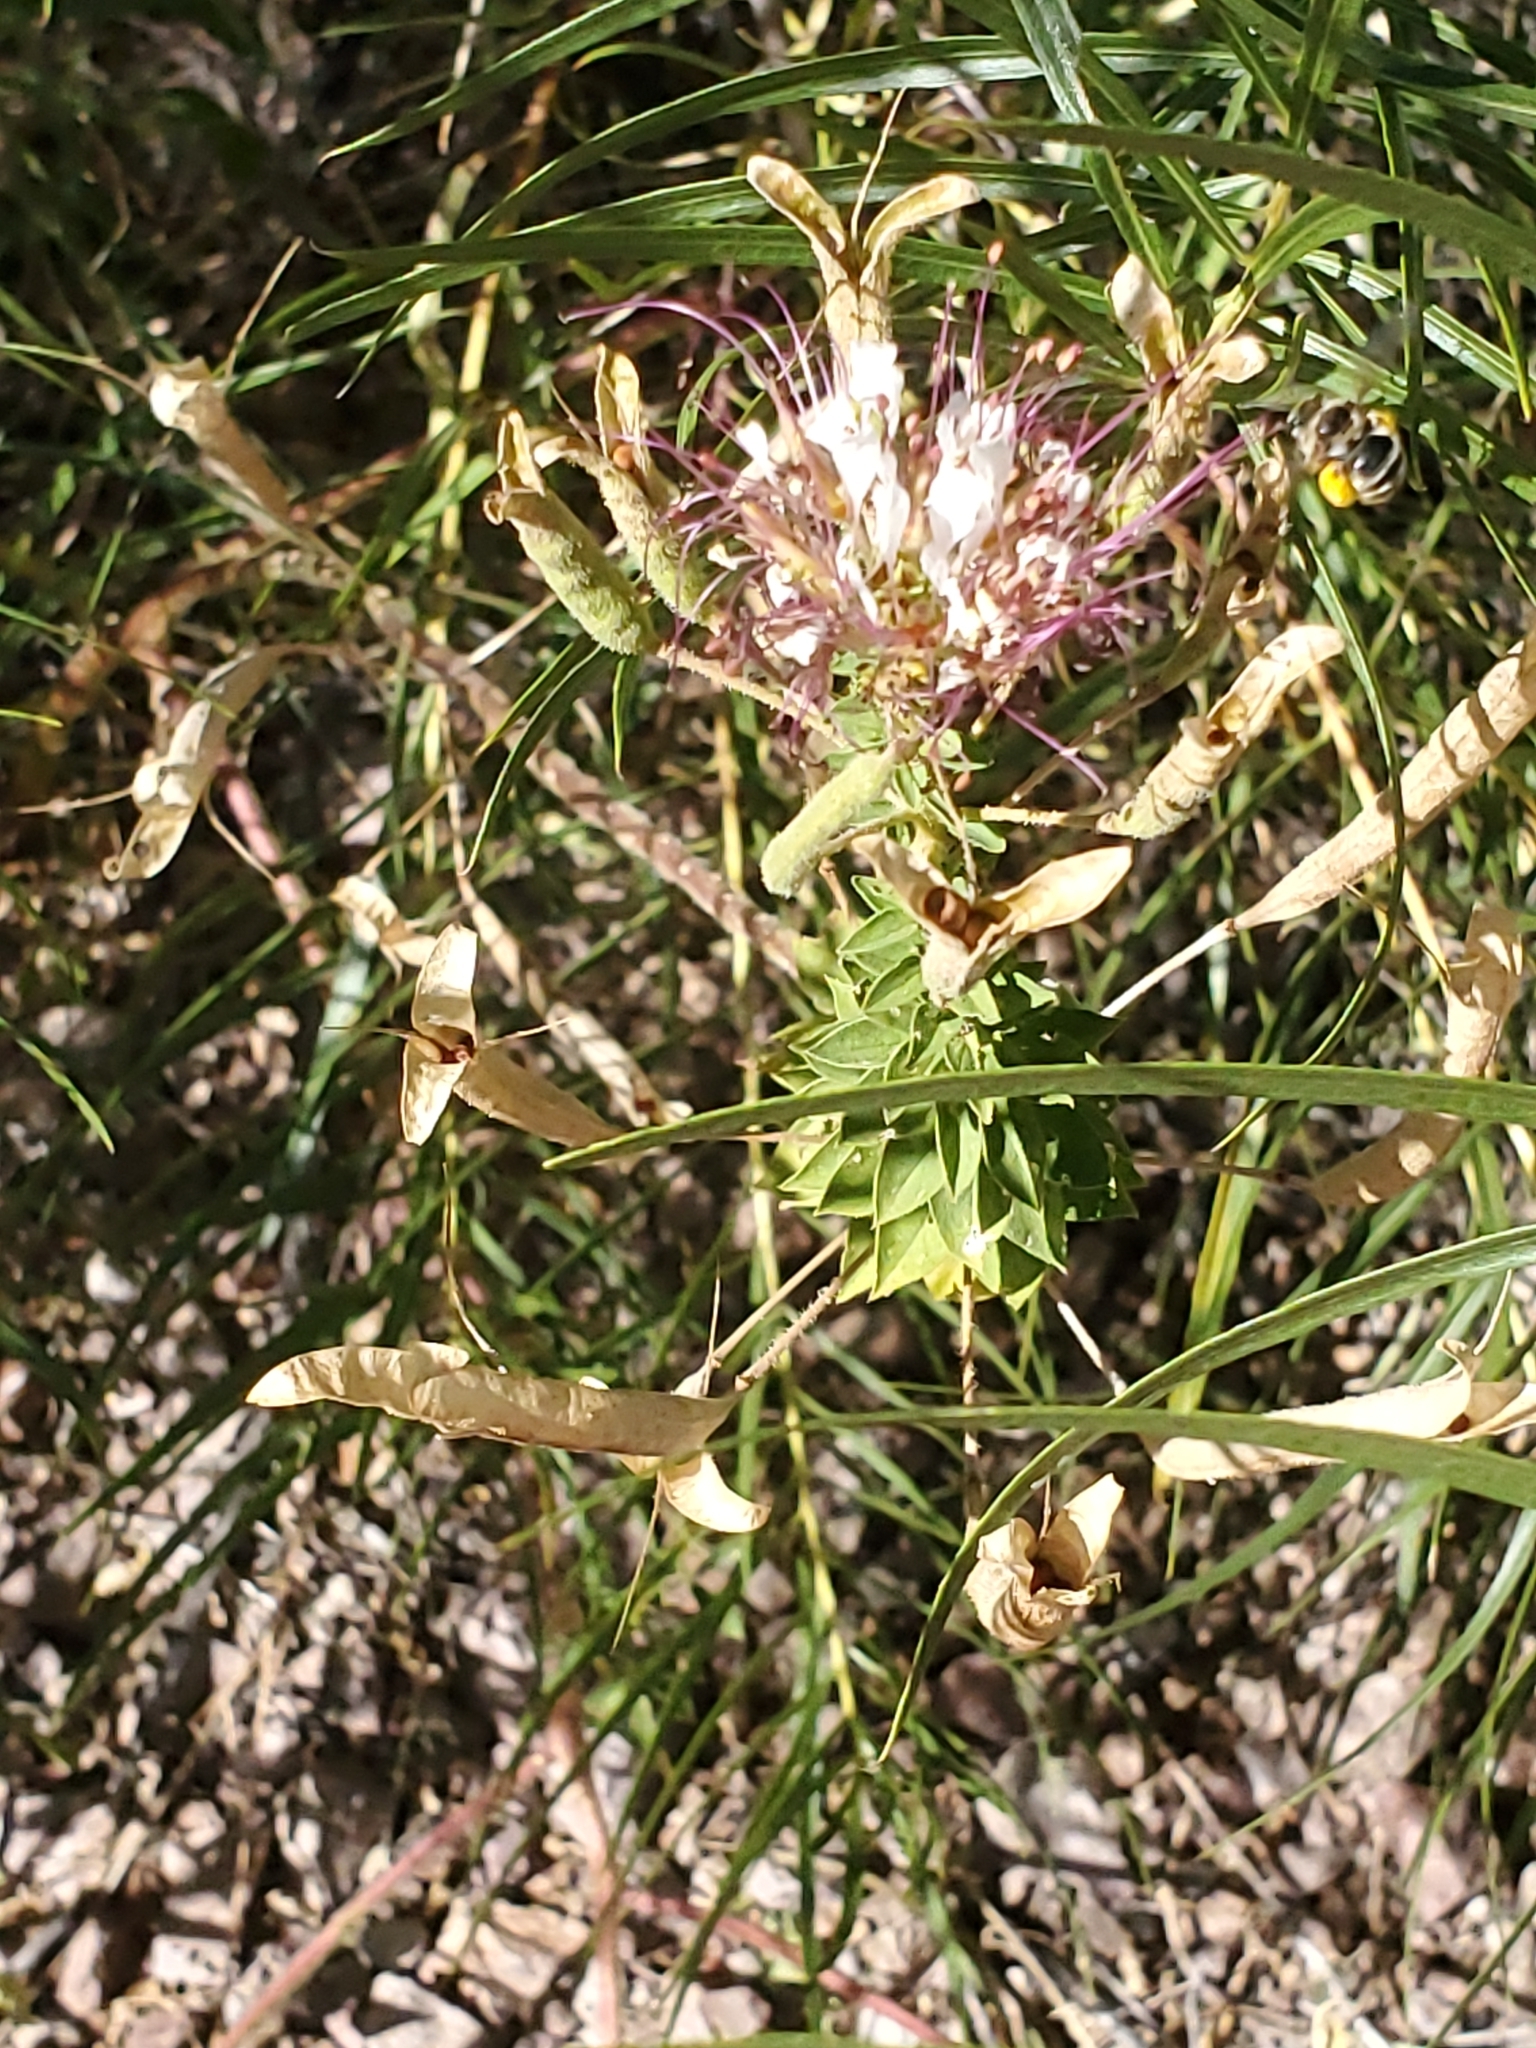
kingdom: Plantae
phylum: Tracheophyta
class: Magnoliopsida
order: Brassicales
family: Cleomaceae
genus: Polanisia
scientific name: Polanisia dodecandra
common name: Clammyweed
